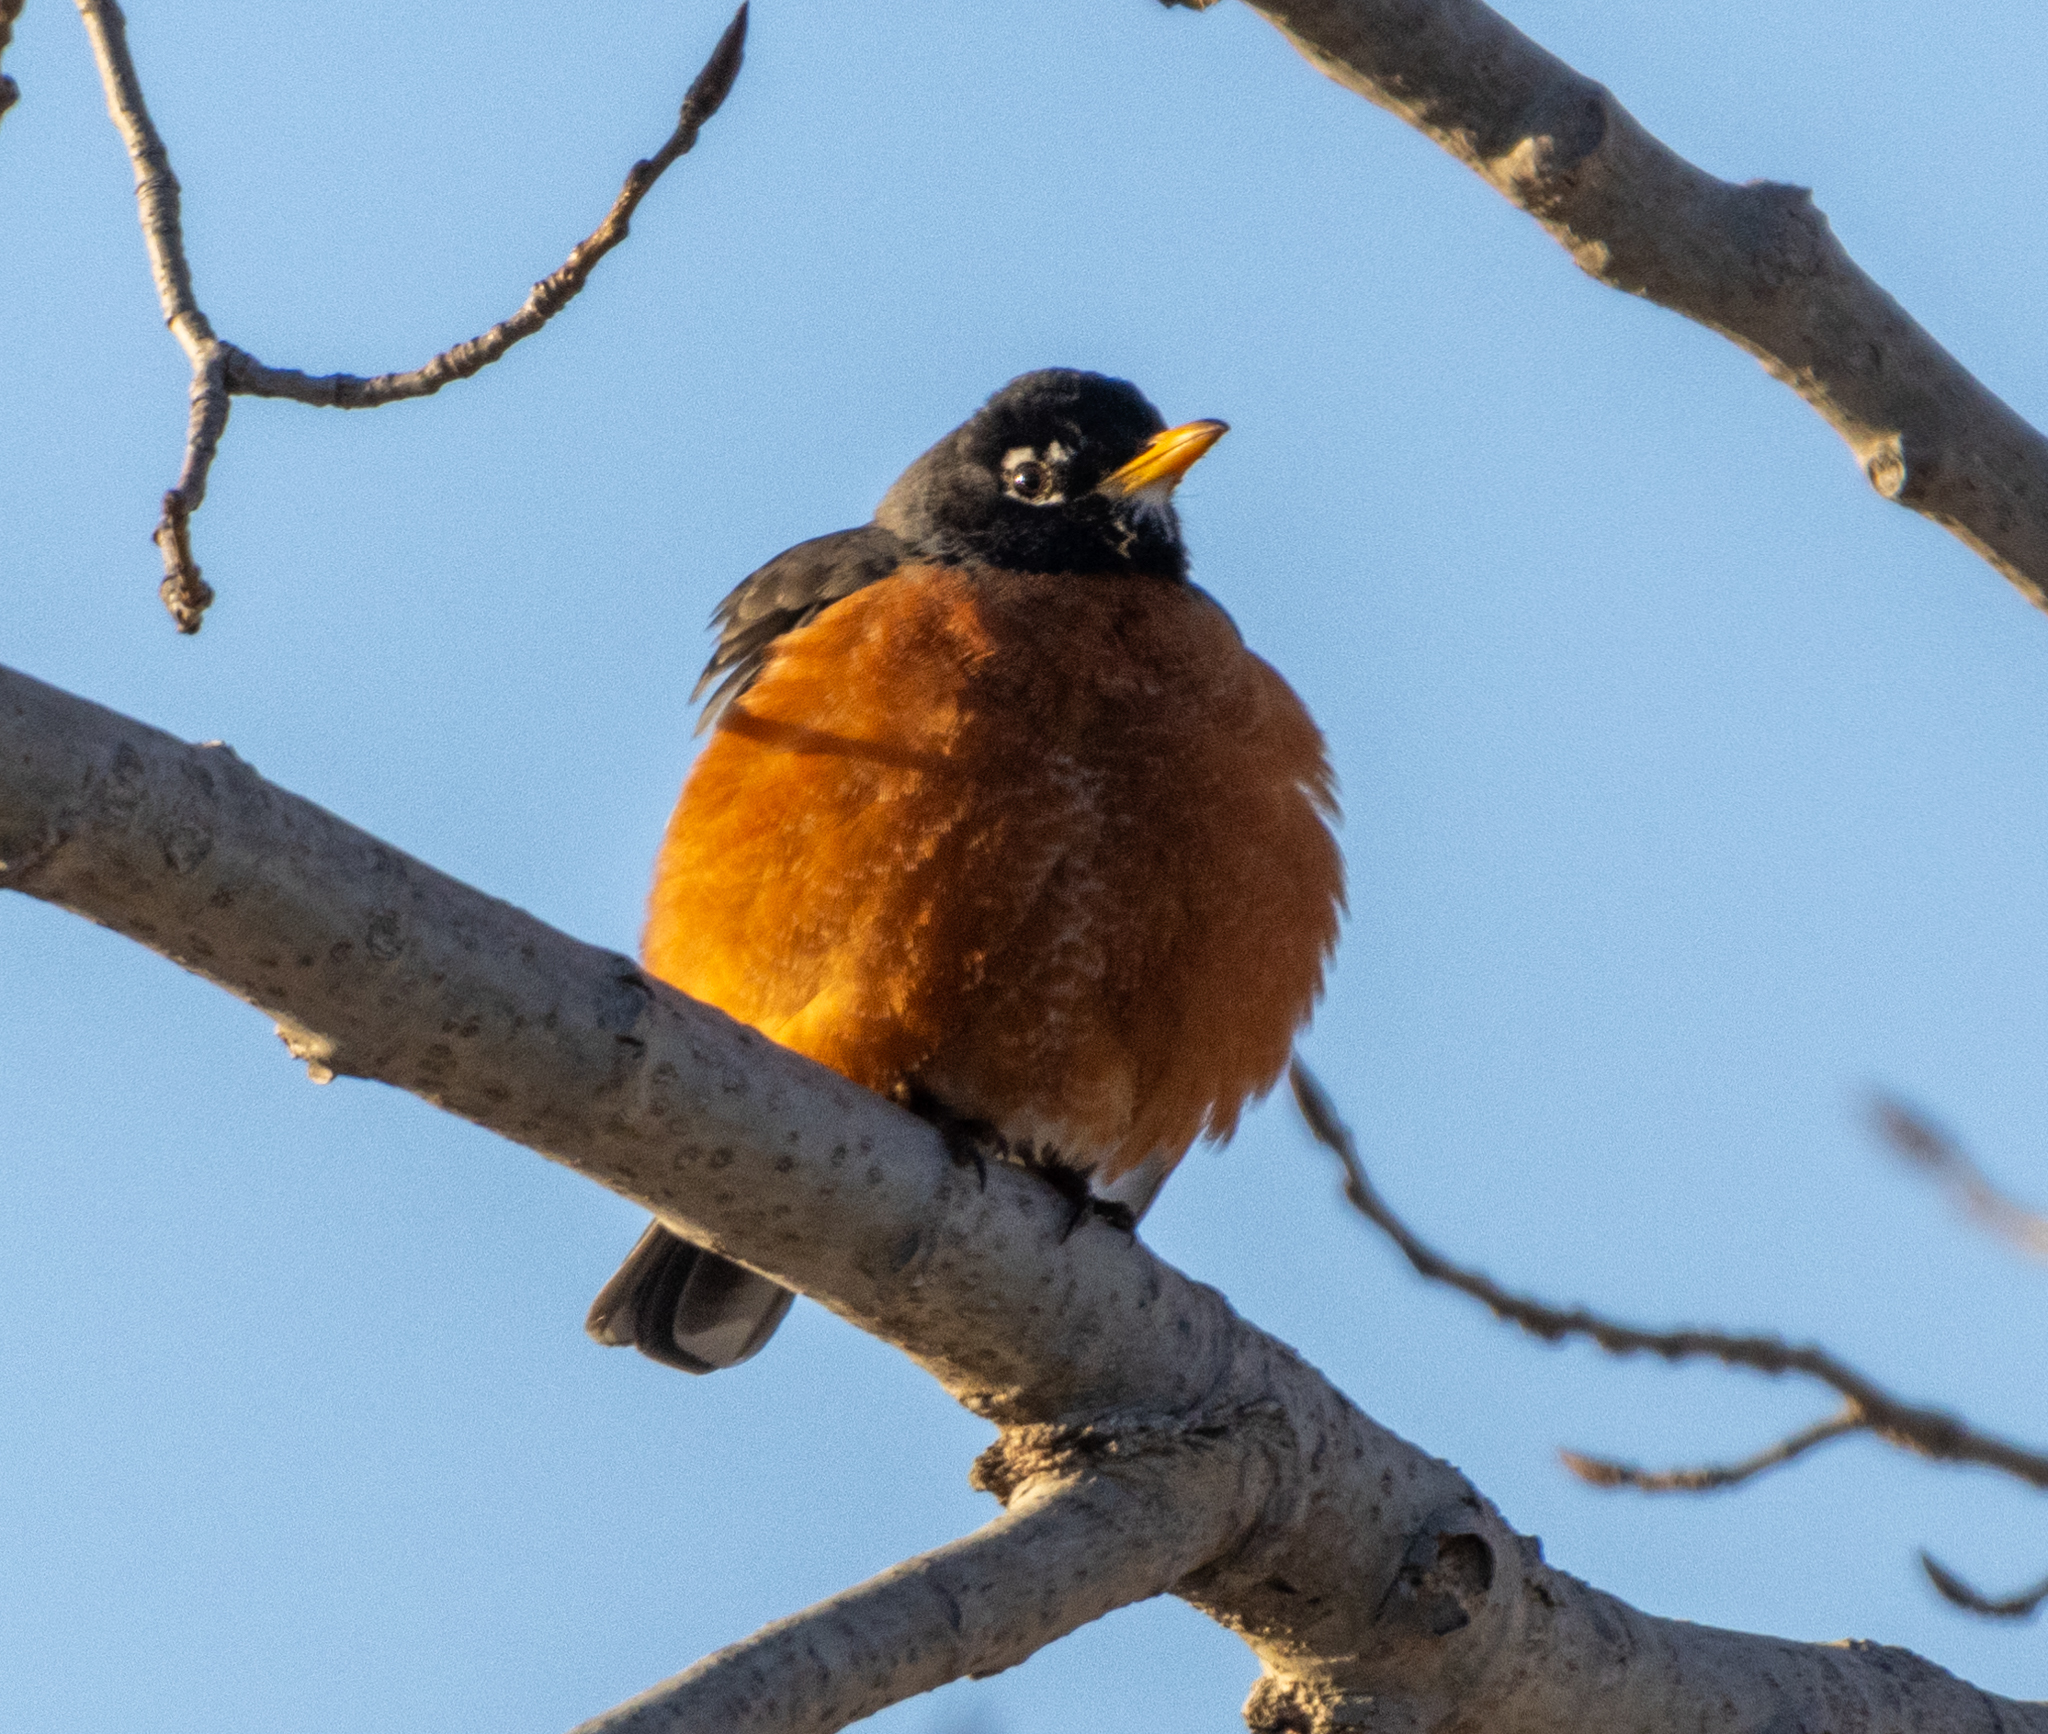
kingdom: Animalia
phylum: Chordata
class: Aves
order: Passeriformes
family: Turdidae
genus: Turdus
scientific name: Turdus migratorius
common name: American robin
